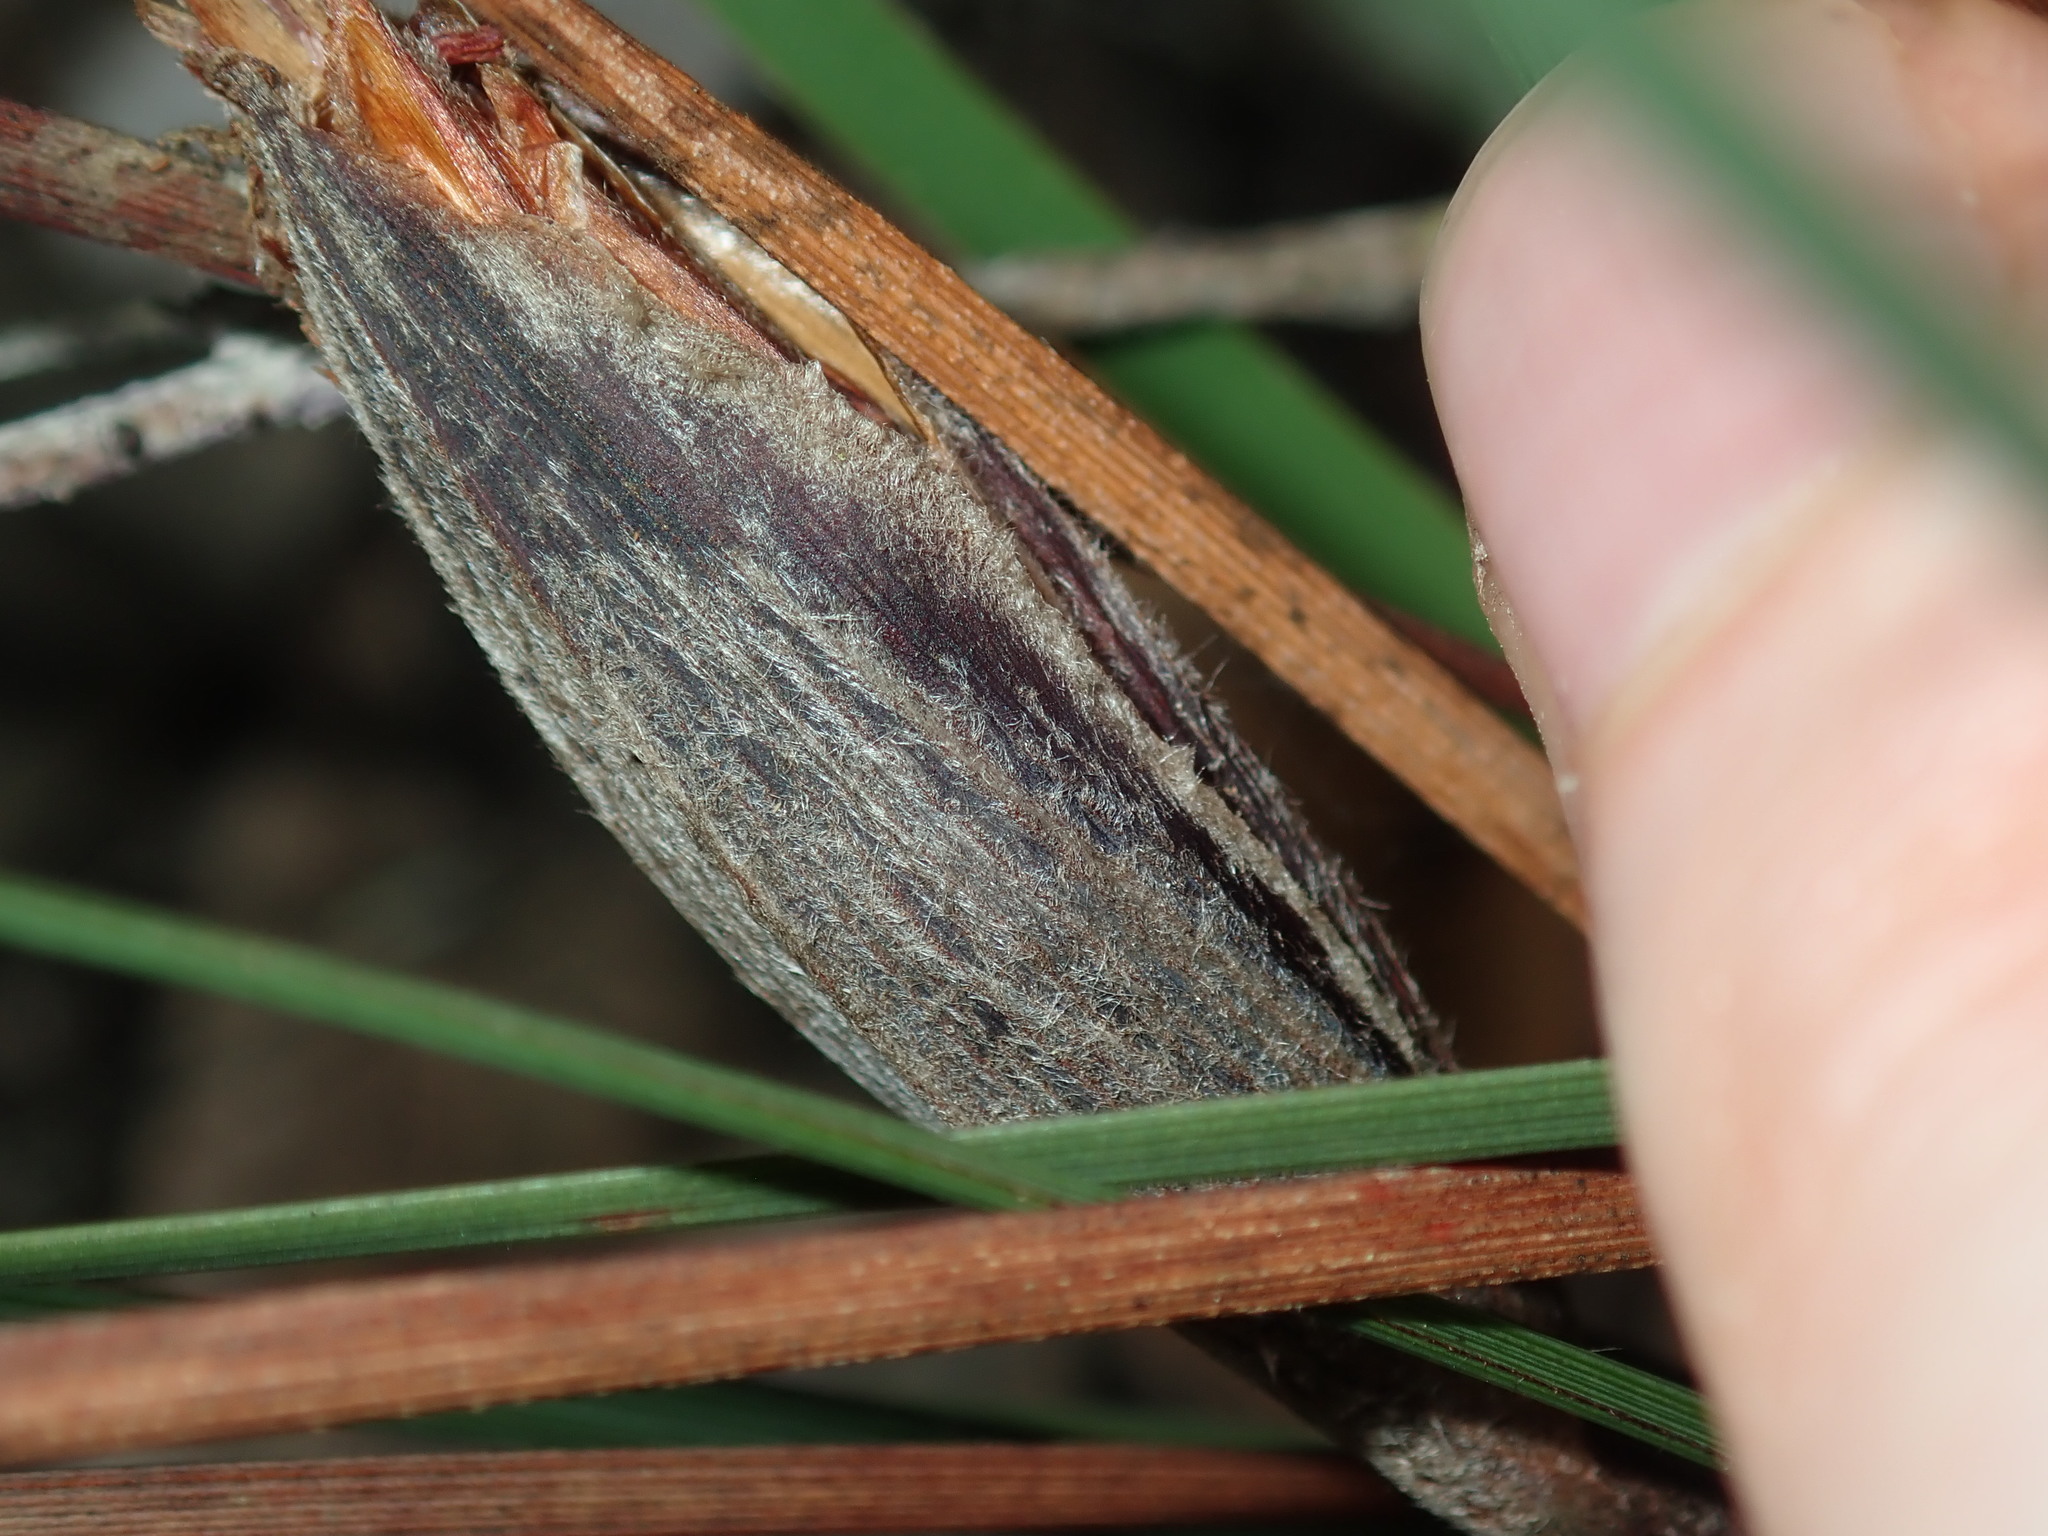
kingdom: Plantae
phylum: Tracheophyta
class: Liliopsida
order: Asparagales
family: Iridaceae
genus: Patersonia
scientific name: Patersonia sericea
